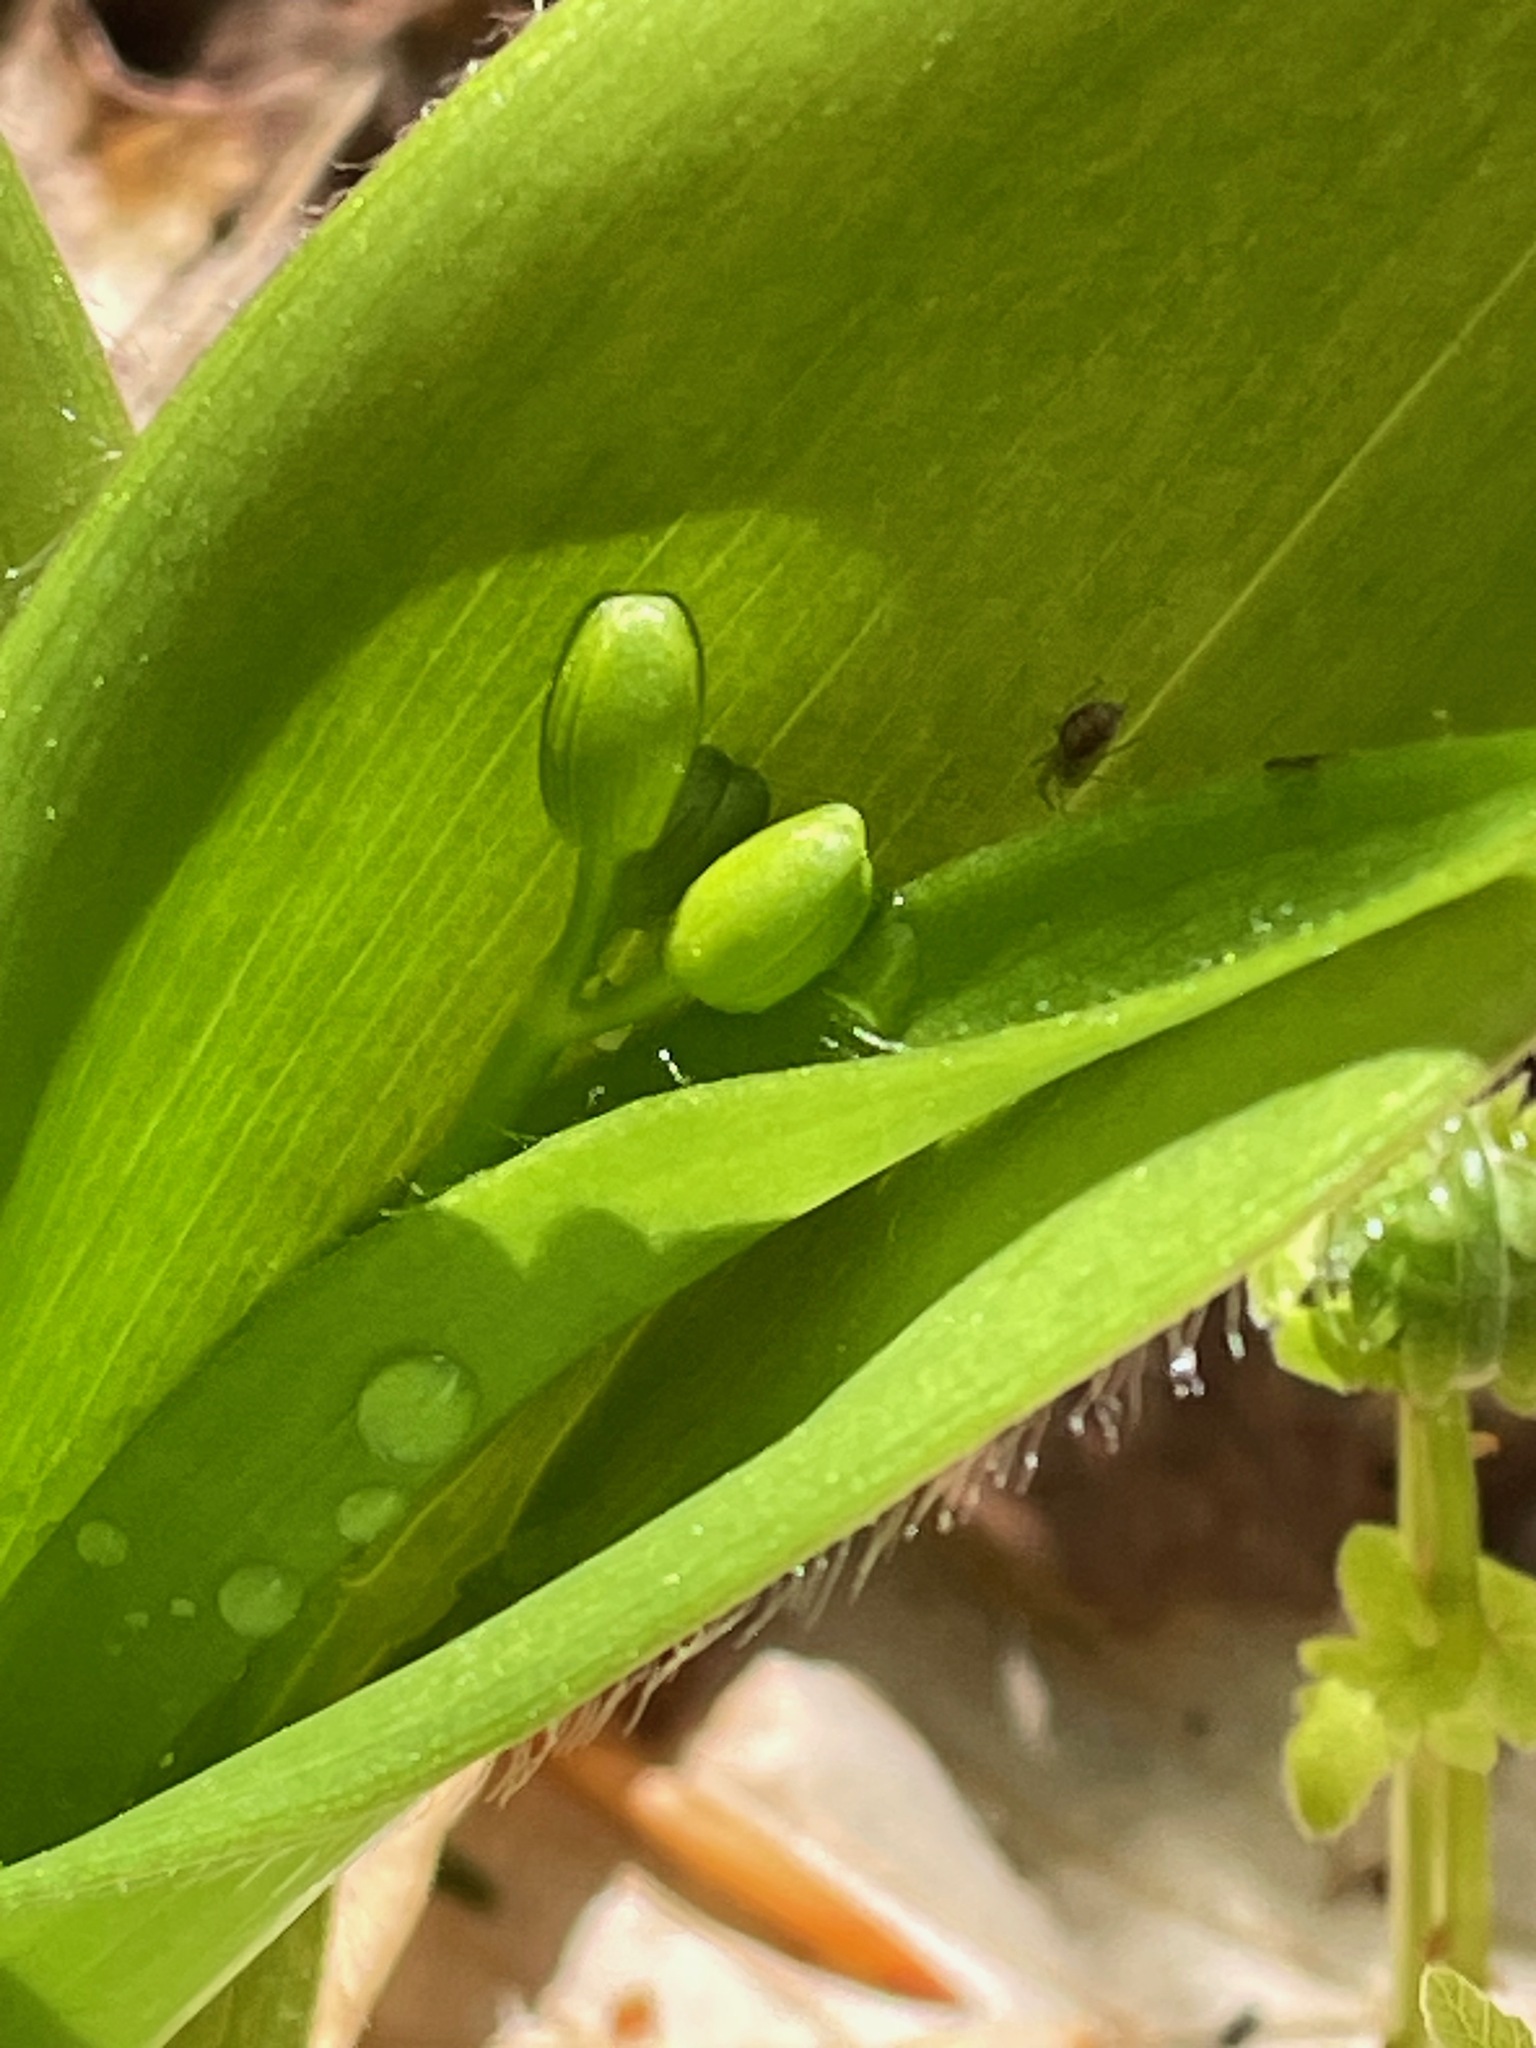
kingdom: Plantae
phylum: Tracheophyta
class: Liliopsida
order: Liliales
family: Liliaceae
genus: Clintonia
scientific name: Clintonia borealis
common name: Yellow clintonia
